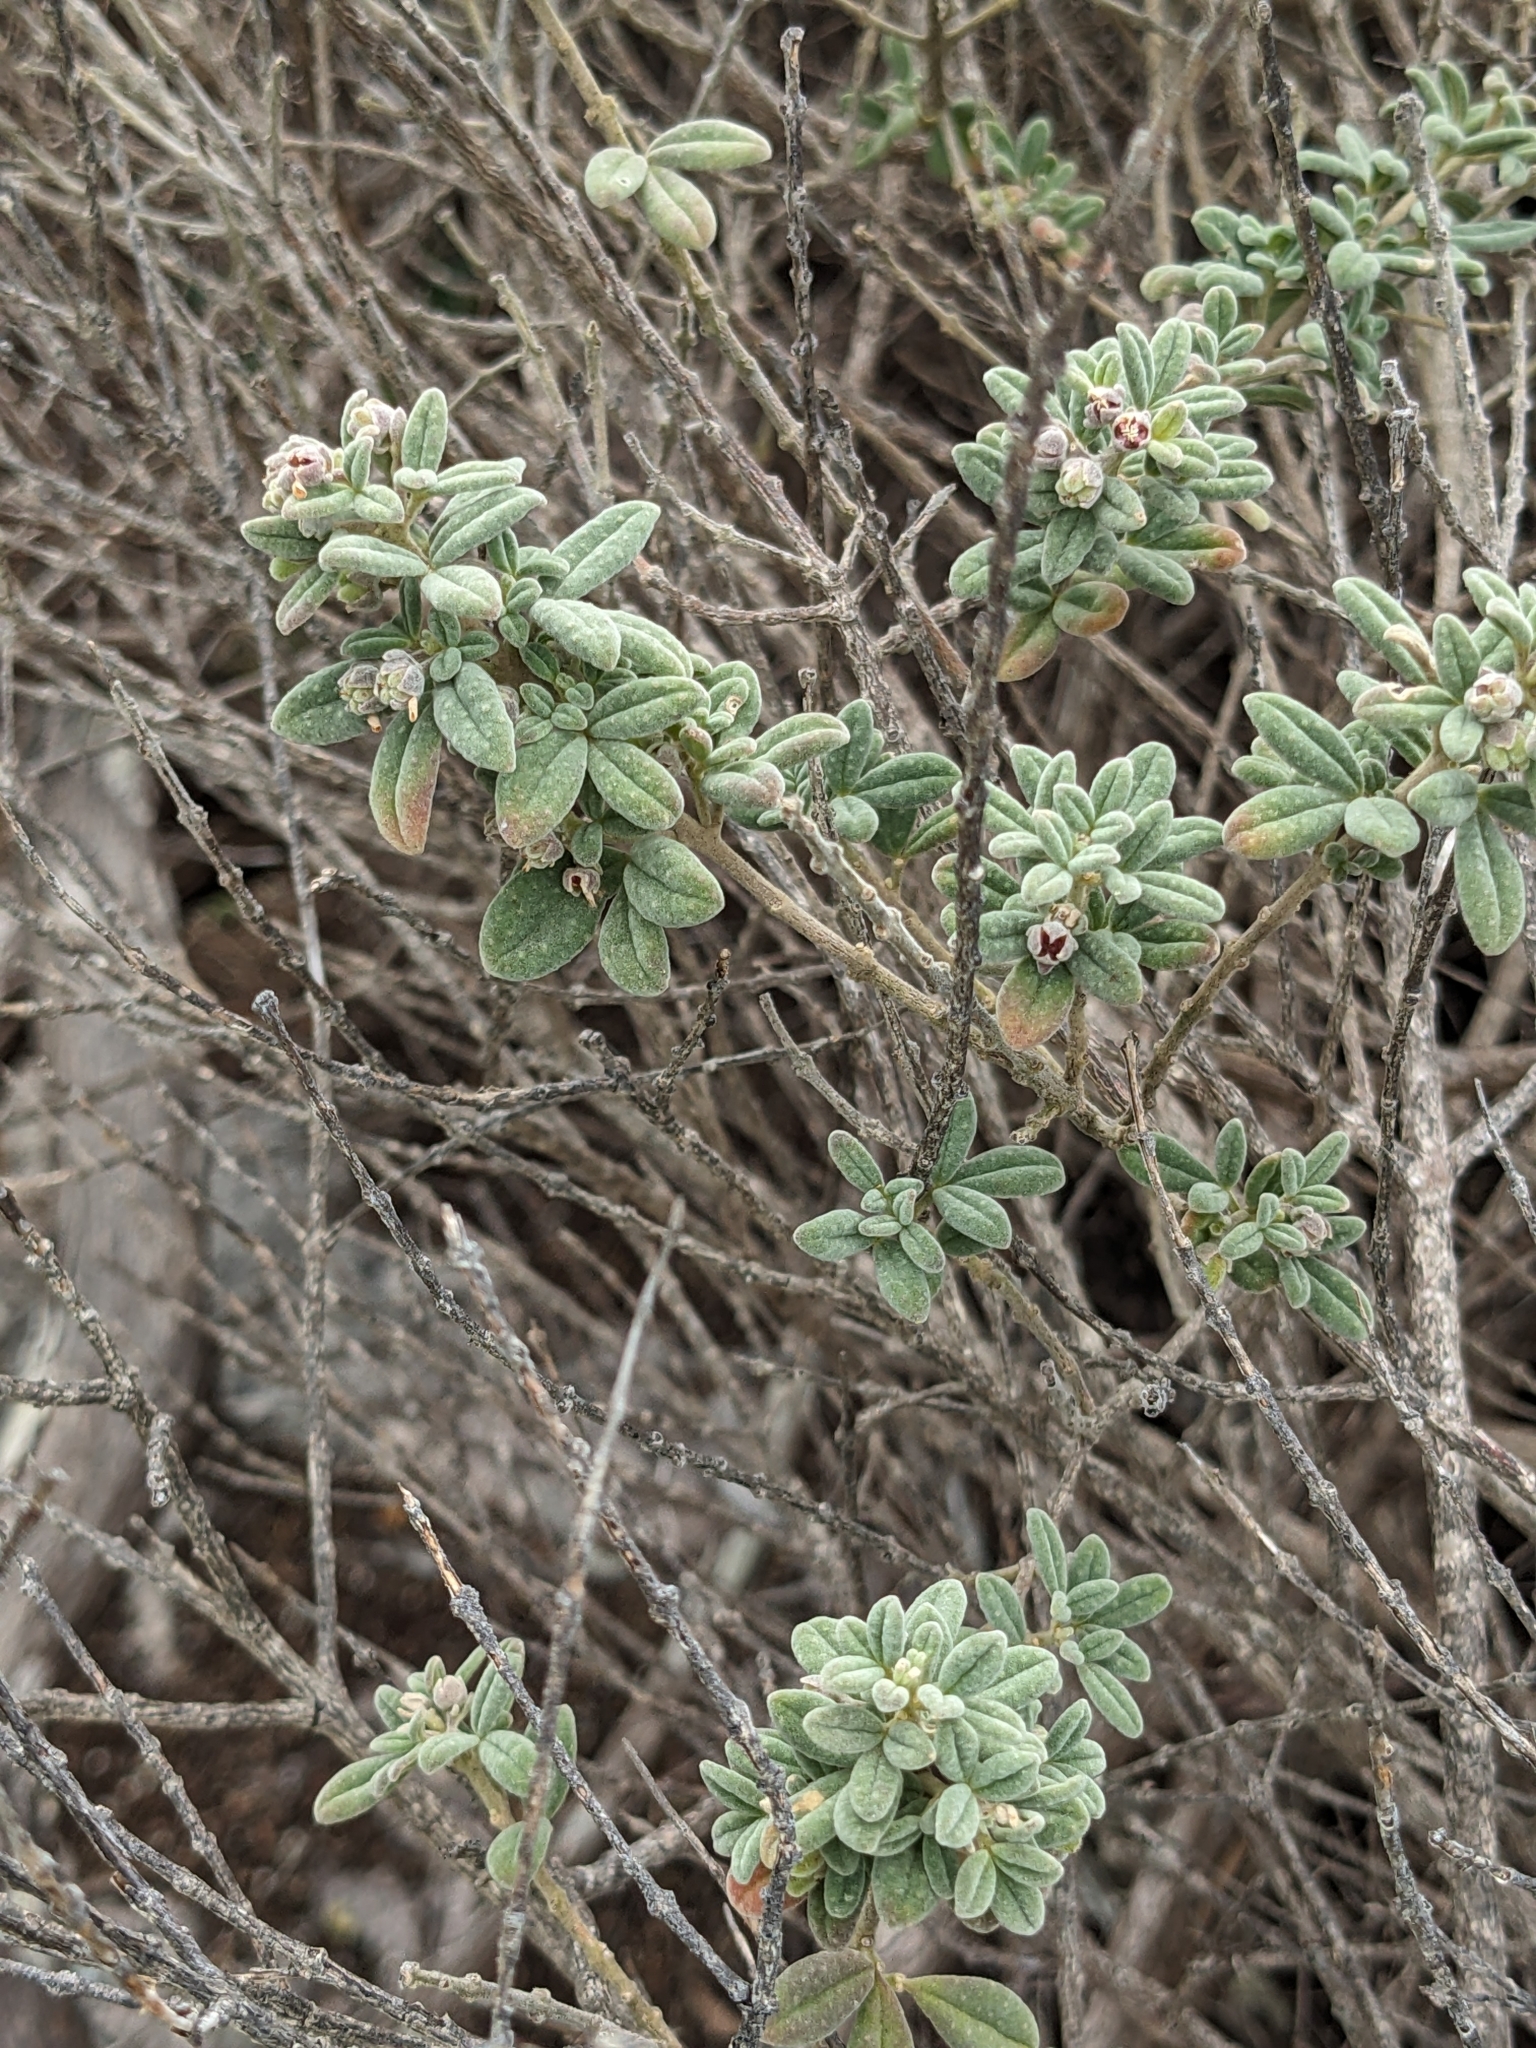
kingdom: Plantae
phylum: Tracheophyta
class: Magnoliopsida
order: Sapindales
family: Rutaceae
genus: Zieria
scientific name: Zieria littoralis
